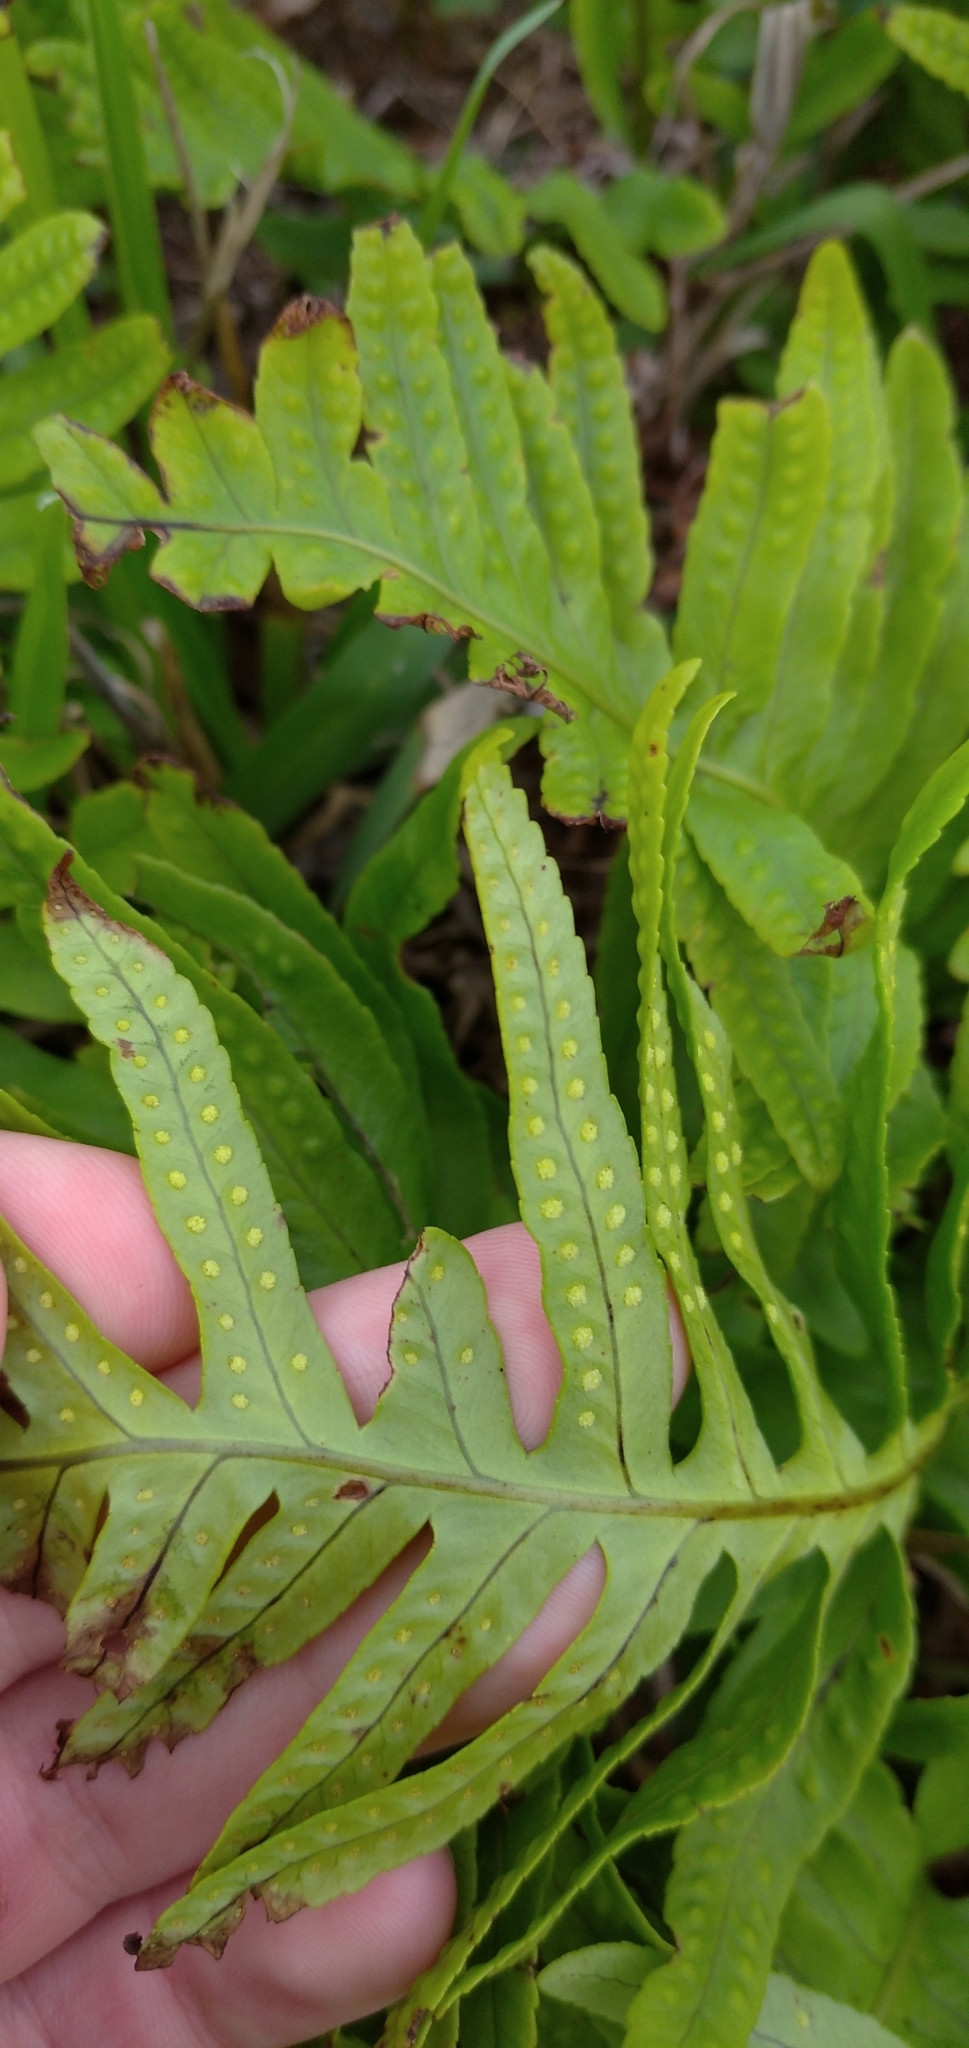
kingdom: Plantae
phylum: Tracheophyta
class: Polypodiopsida
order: Polypodiales
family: Polypodiaceae
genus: Polypodium
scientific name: Polypodium cambricum
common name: Southern polypody
